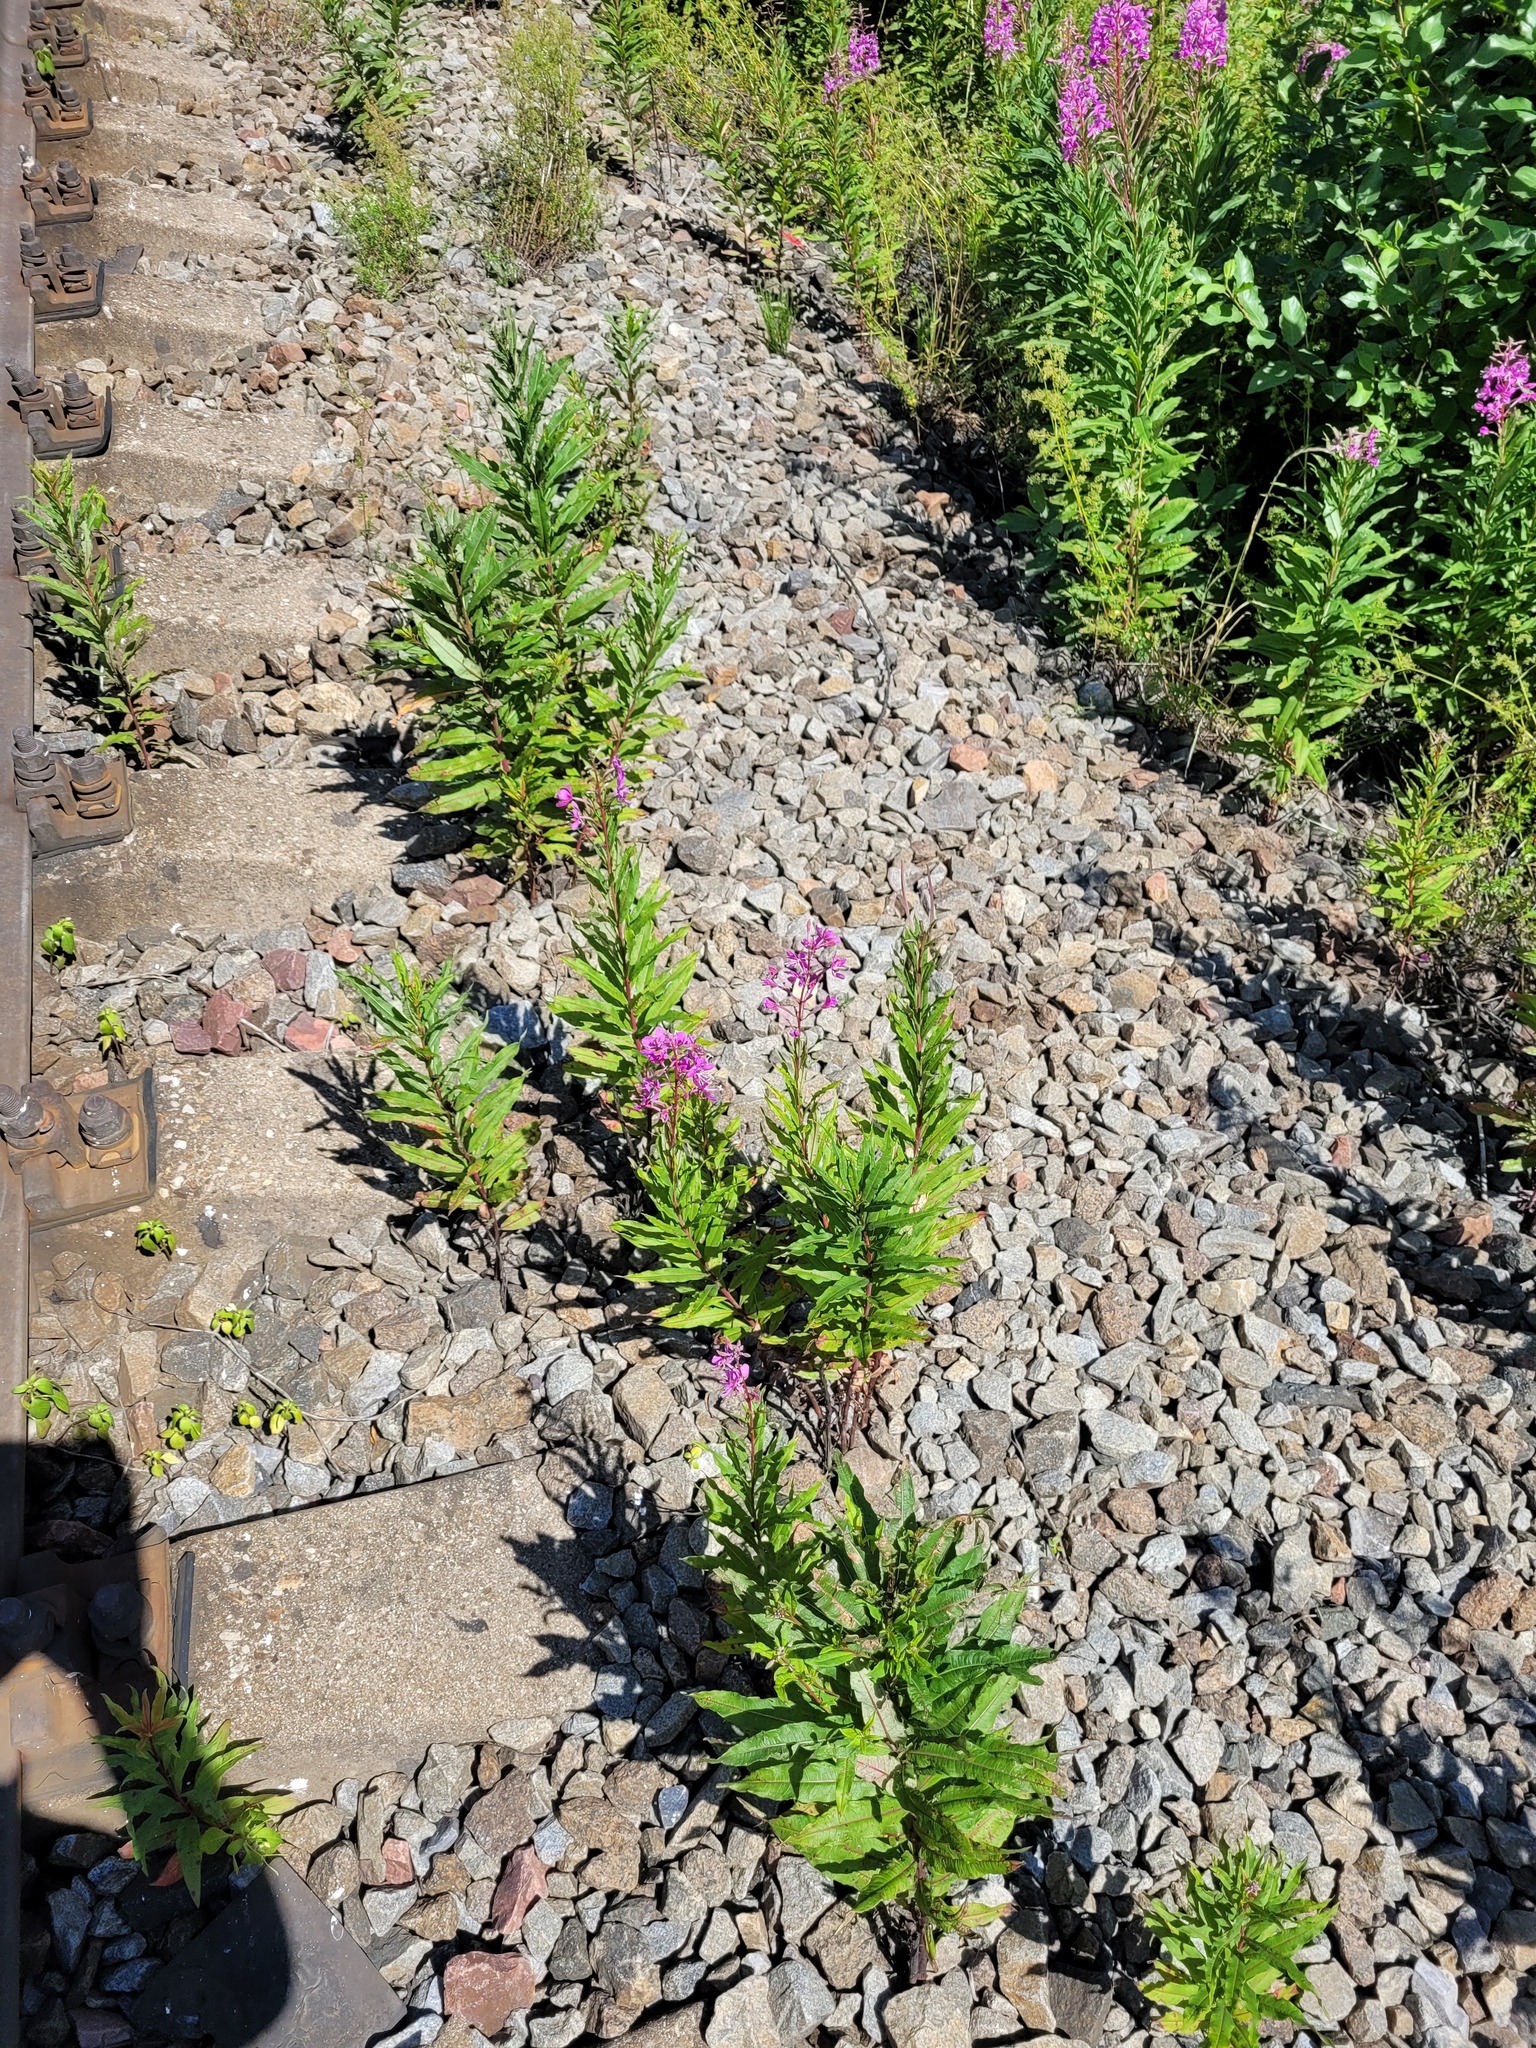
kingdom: Plantae
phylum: Tracheophyta
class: Magnoliopsida
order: Myrtales
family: Onagraceae
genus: Chamaenerion
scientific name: Chamaenerion angustifolium
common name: Fireweed
